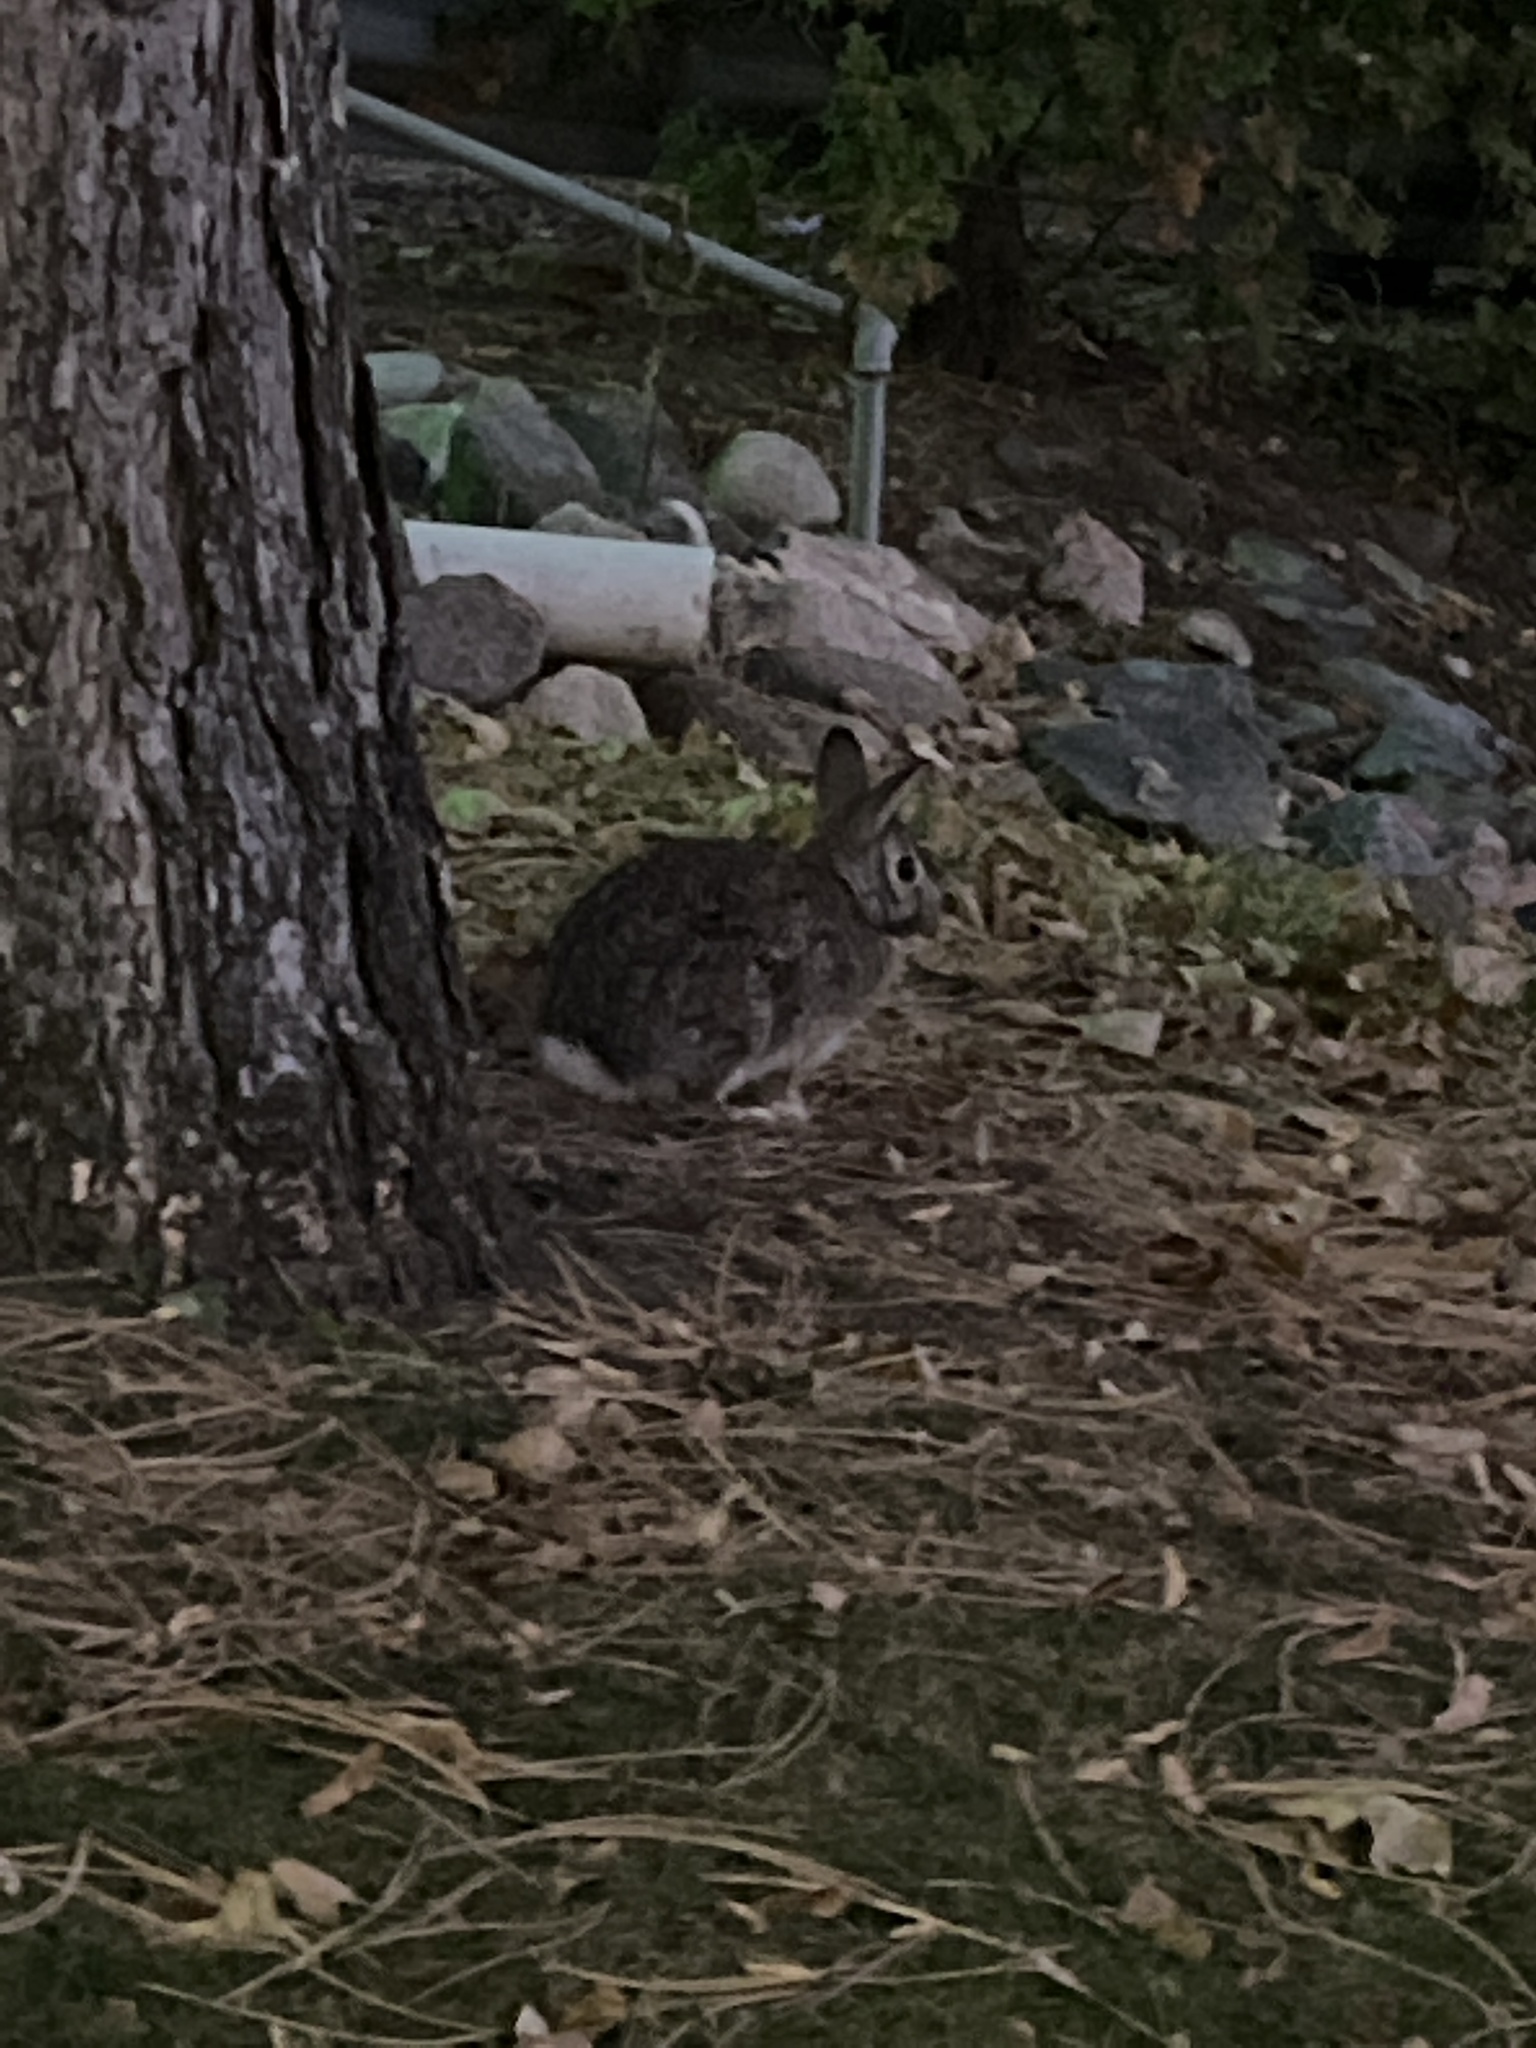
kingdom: Animalia
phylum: Chordata
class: Mammalia
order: Lagomorpha
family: Leporidae
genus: Sylvilagus
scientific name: Sylvilagus floridanus
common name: Eastern cottontail
